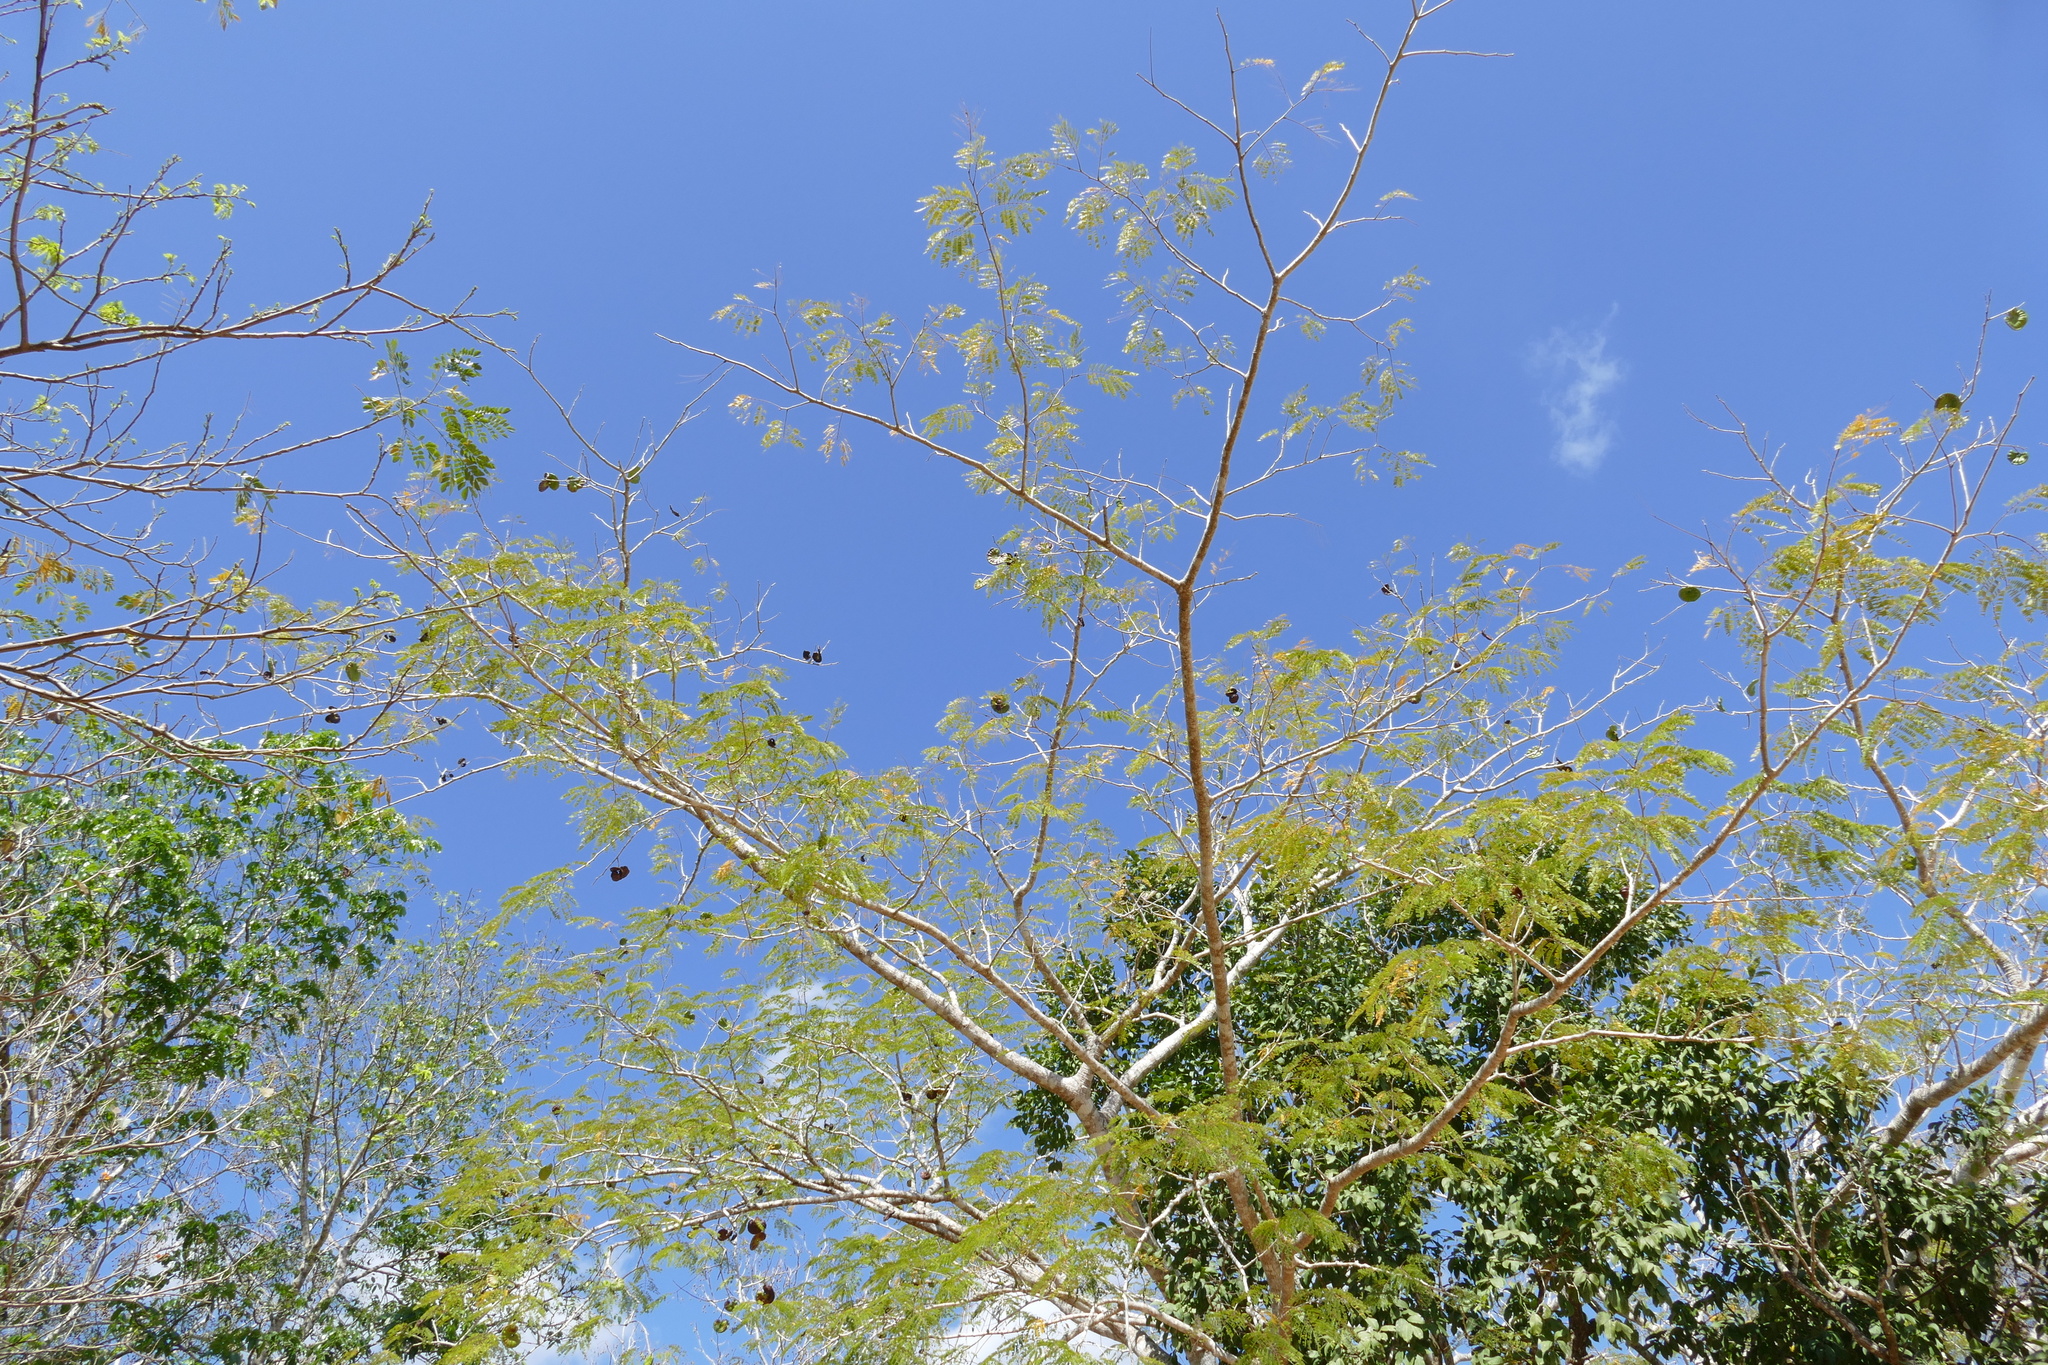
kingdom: Plantae
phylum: Tracheophyta
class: Magnoliopsida
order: Fabales
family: Fabaceae
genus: Enterolobium
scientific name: Enterolobium cyclocarpum
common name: Ear tree
